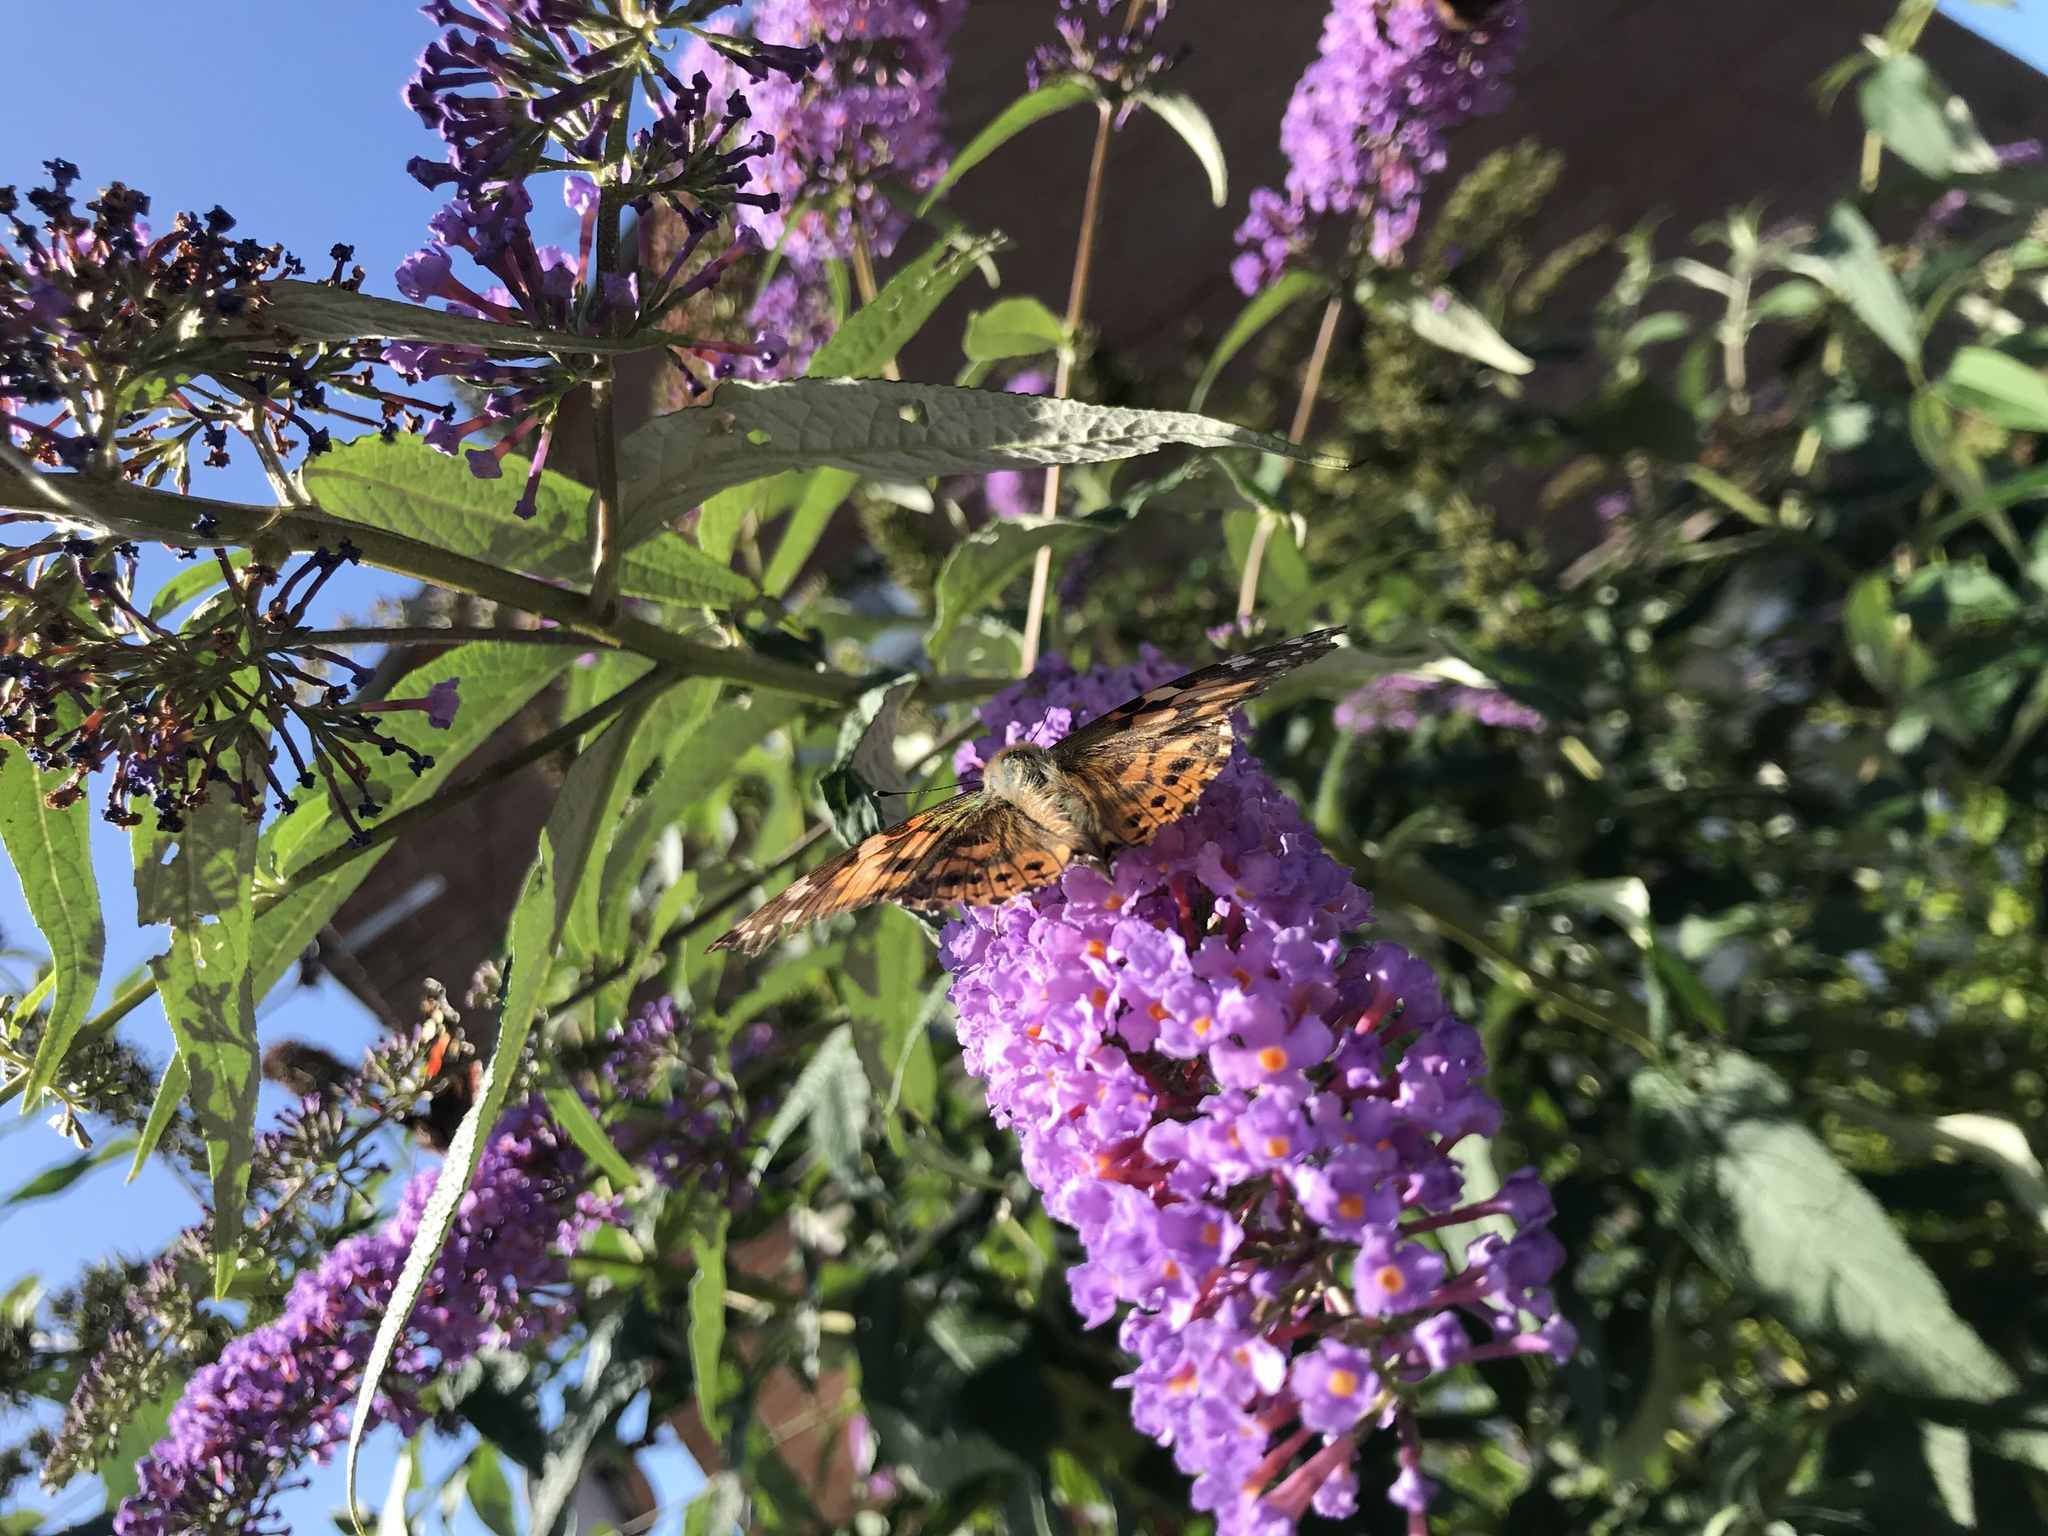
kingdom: Animalia
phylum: Arthropoda
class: Insecta
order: Lepidoptera
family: Nymphalidae
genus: Vanessa
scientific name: Vanessa cardui
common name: Painted lady
